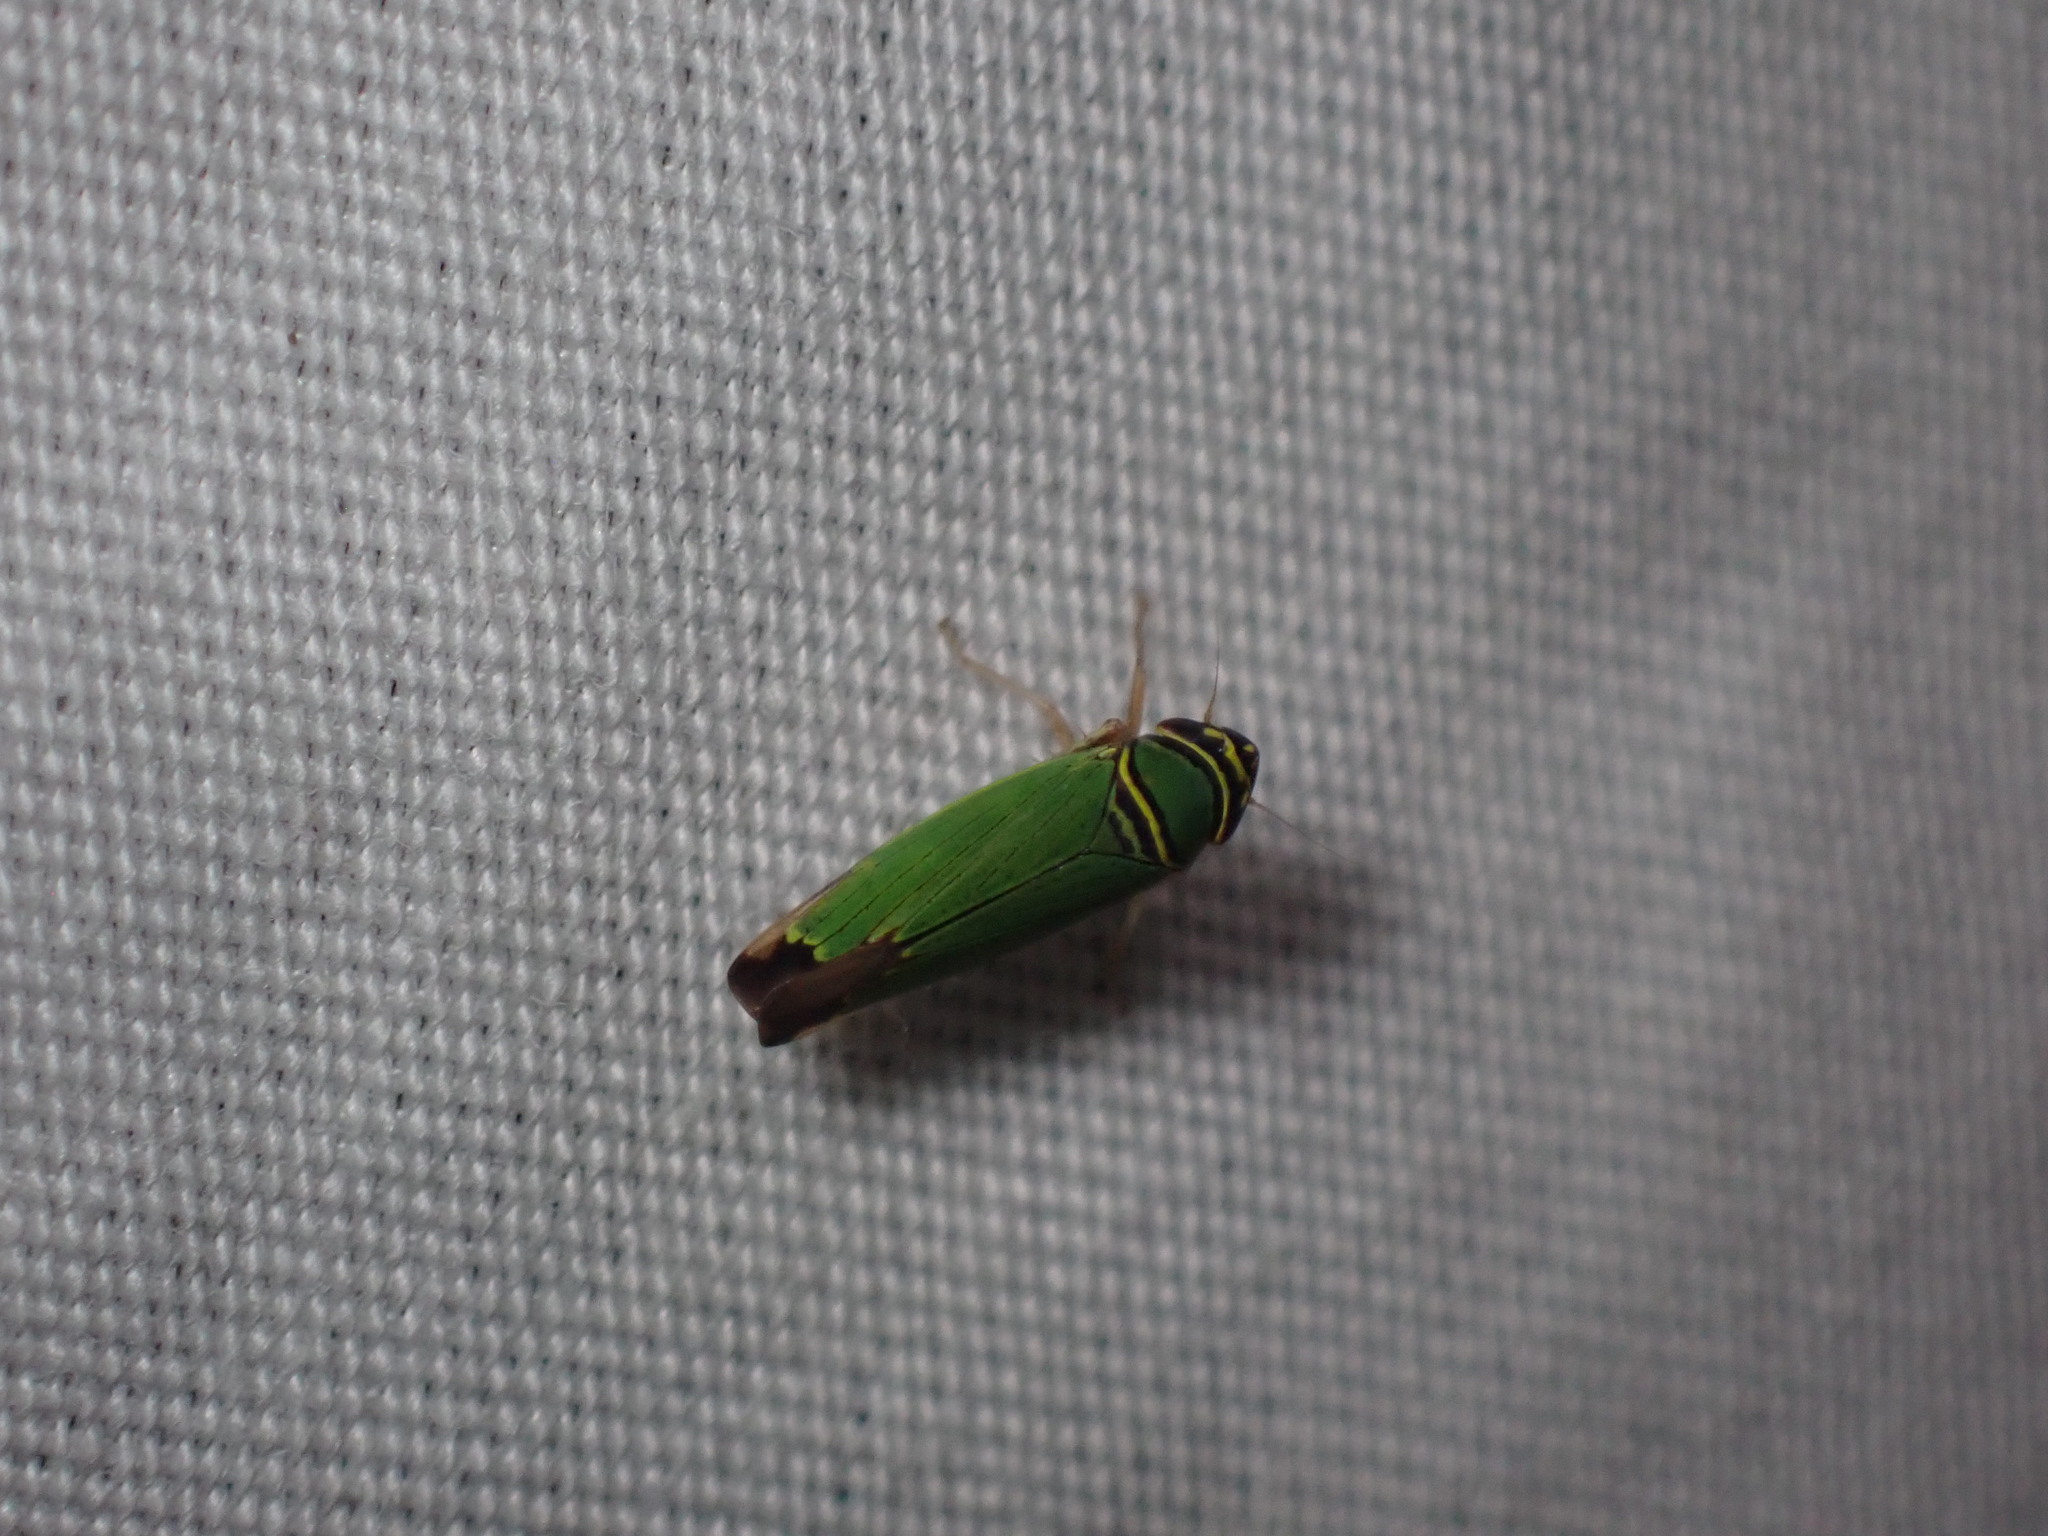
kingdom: Animalia
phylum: Arthropoda
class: Insecta
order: Hemiptera
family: Cicadellidae
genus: Tylozygus
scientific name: Tylozygus geometricus
